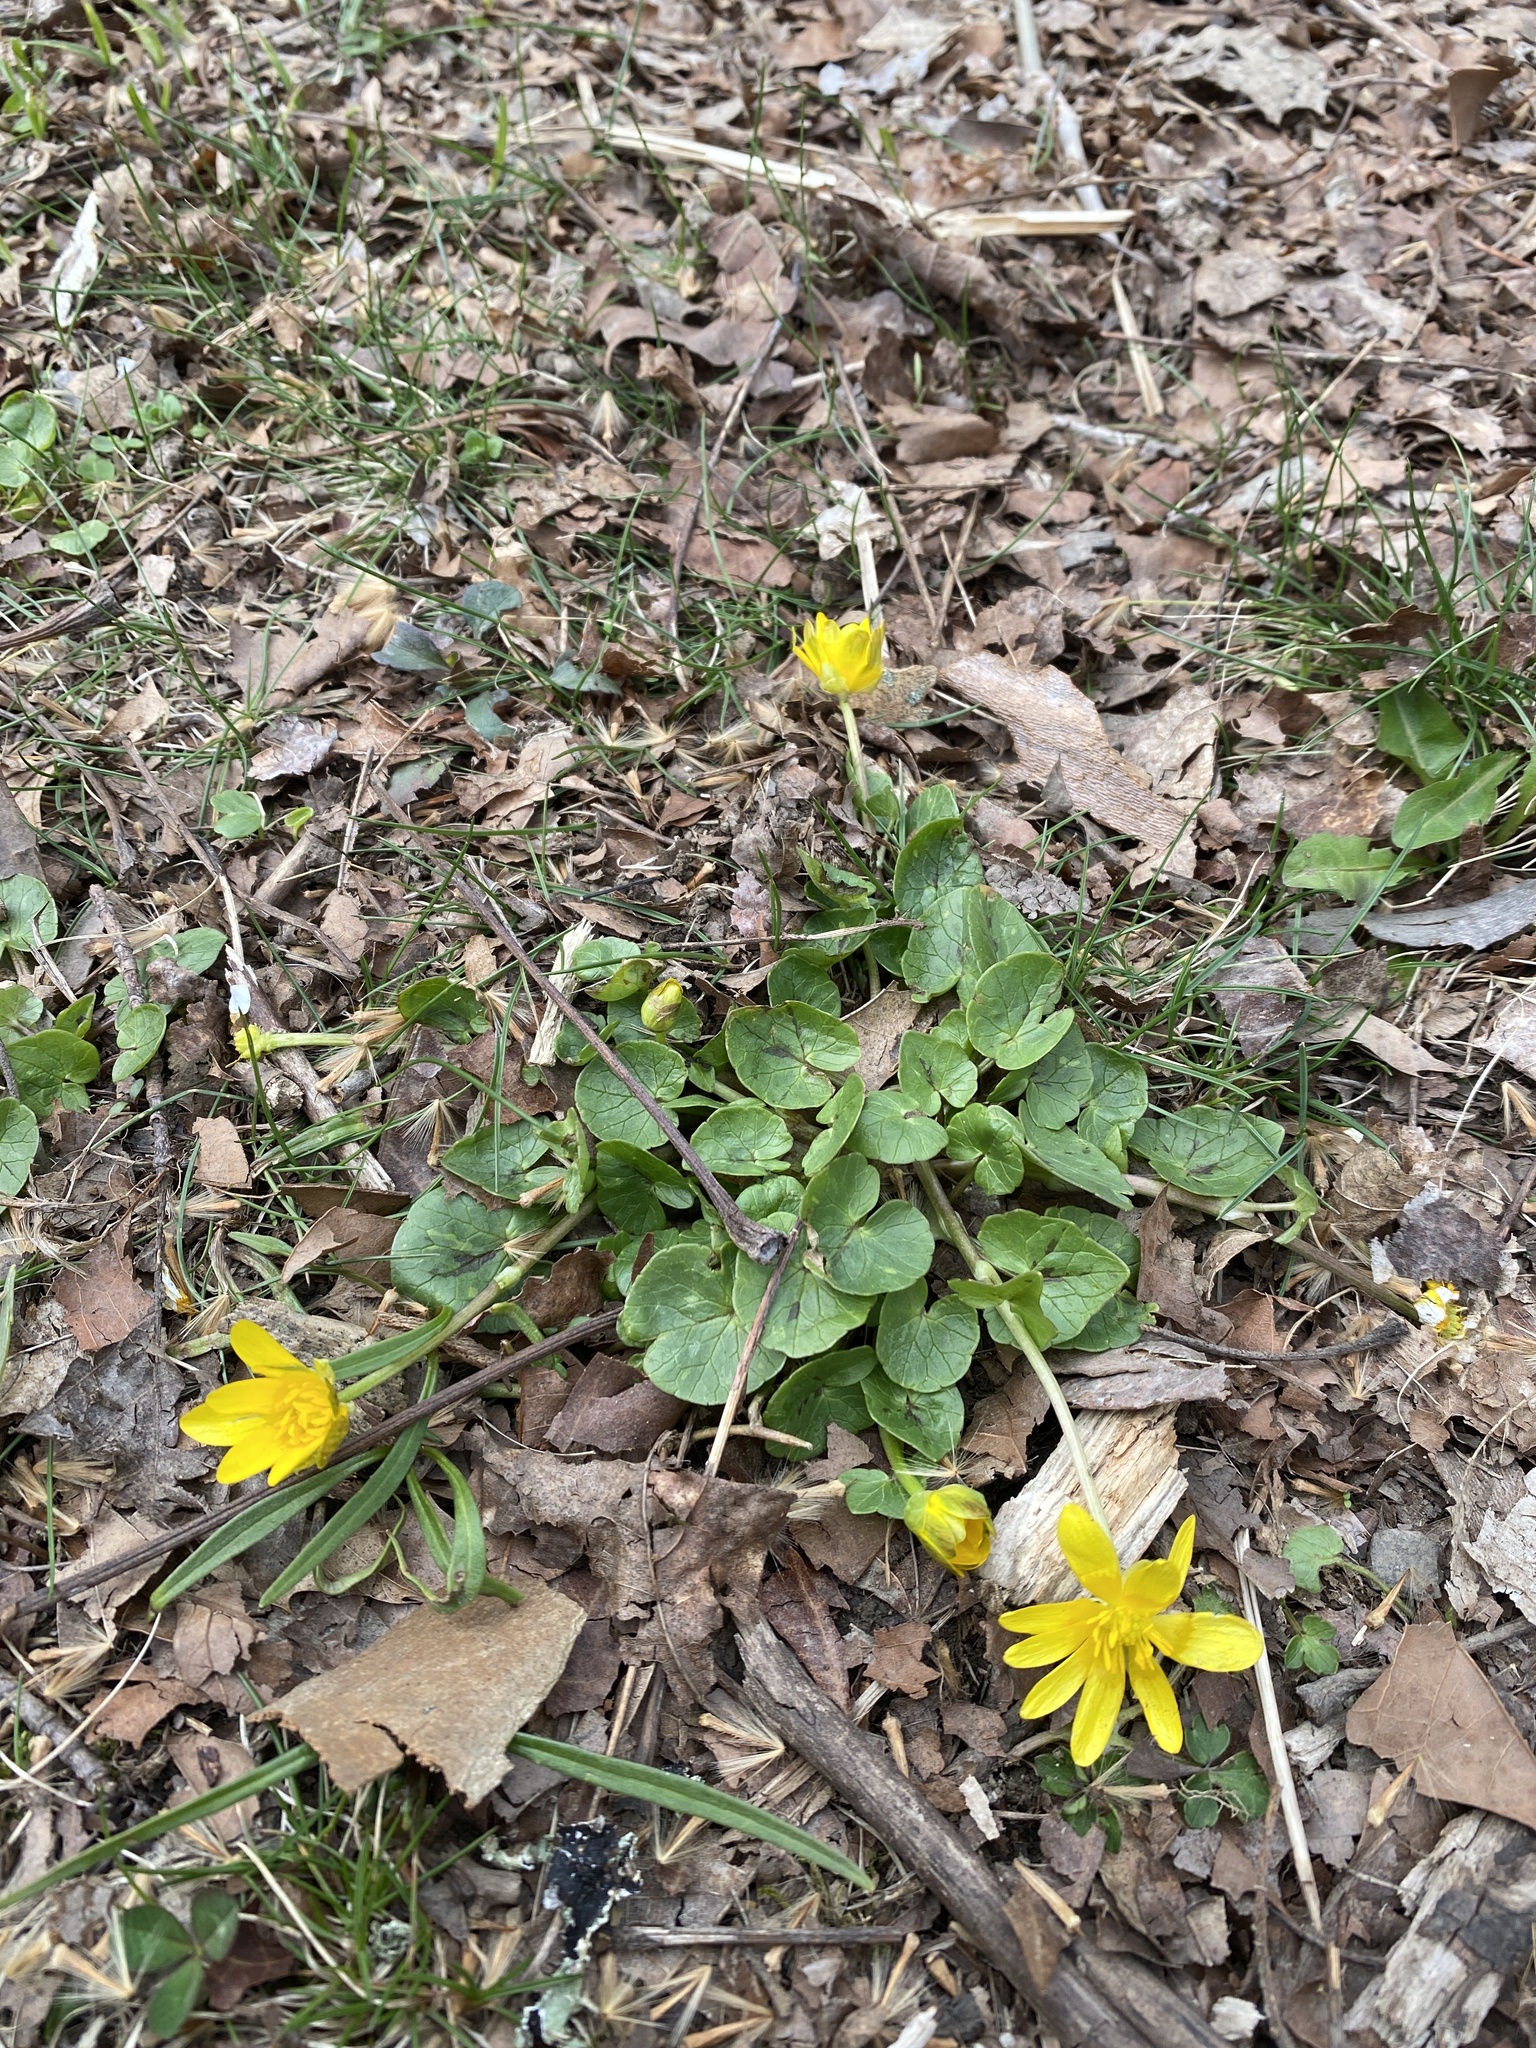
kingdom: Plantae
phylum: Tracheophyta
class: Magnoliopsida
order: Ranunculales
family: Ranunculaceae
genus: Ficaria
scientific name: Ficaria verna
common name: Lesser celandine
